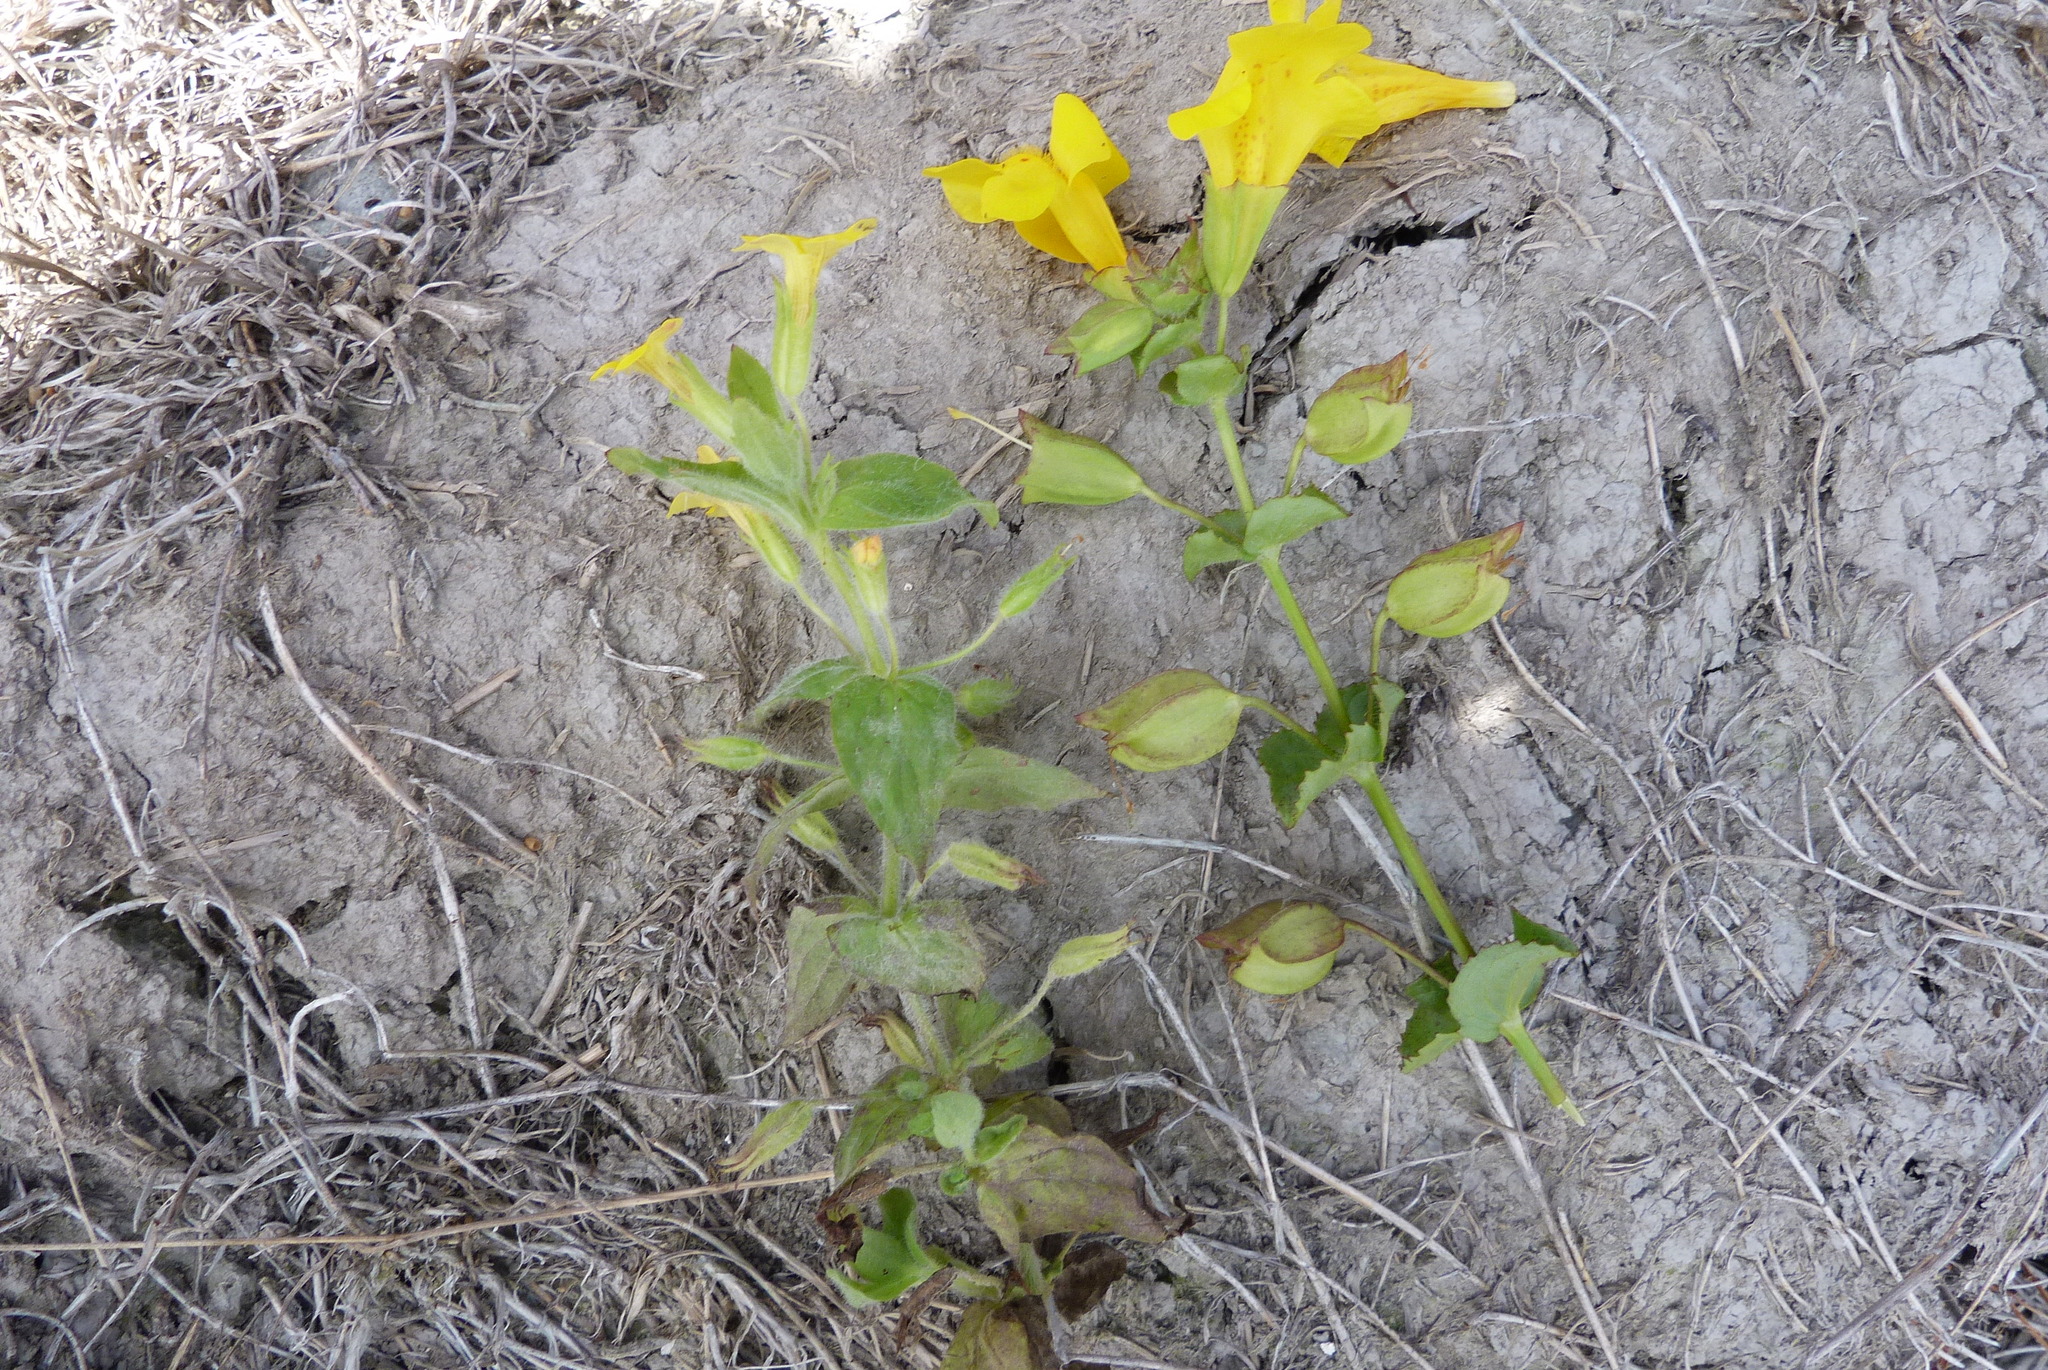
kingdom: Plantae
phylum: Tracheophyta
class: Magnoliopsida
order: Lamiales
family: Phrymaceae
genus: Erythranthe
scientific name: Erythranthe moschata
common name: Muskflower
